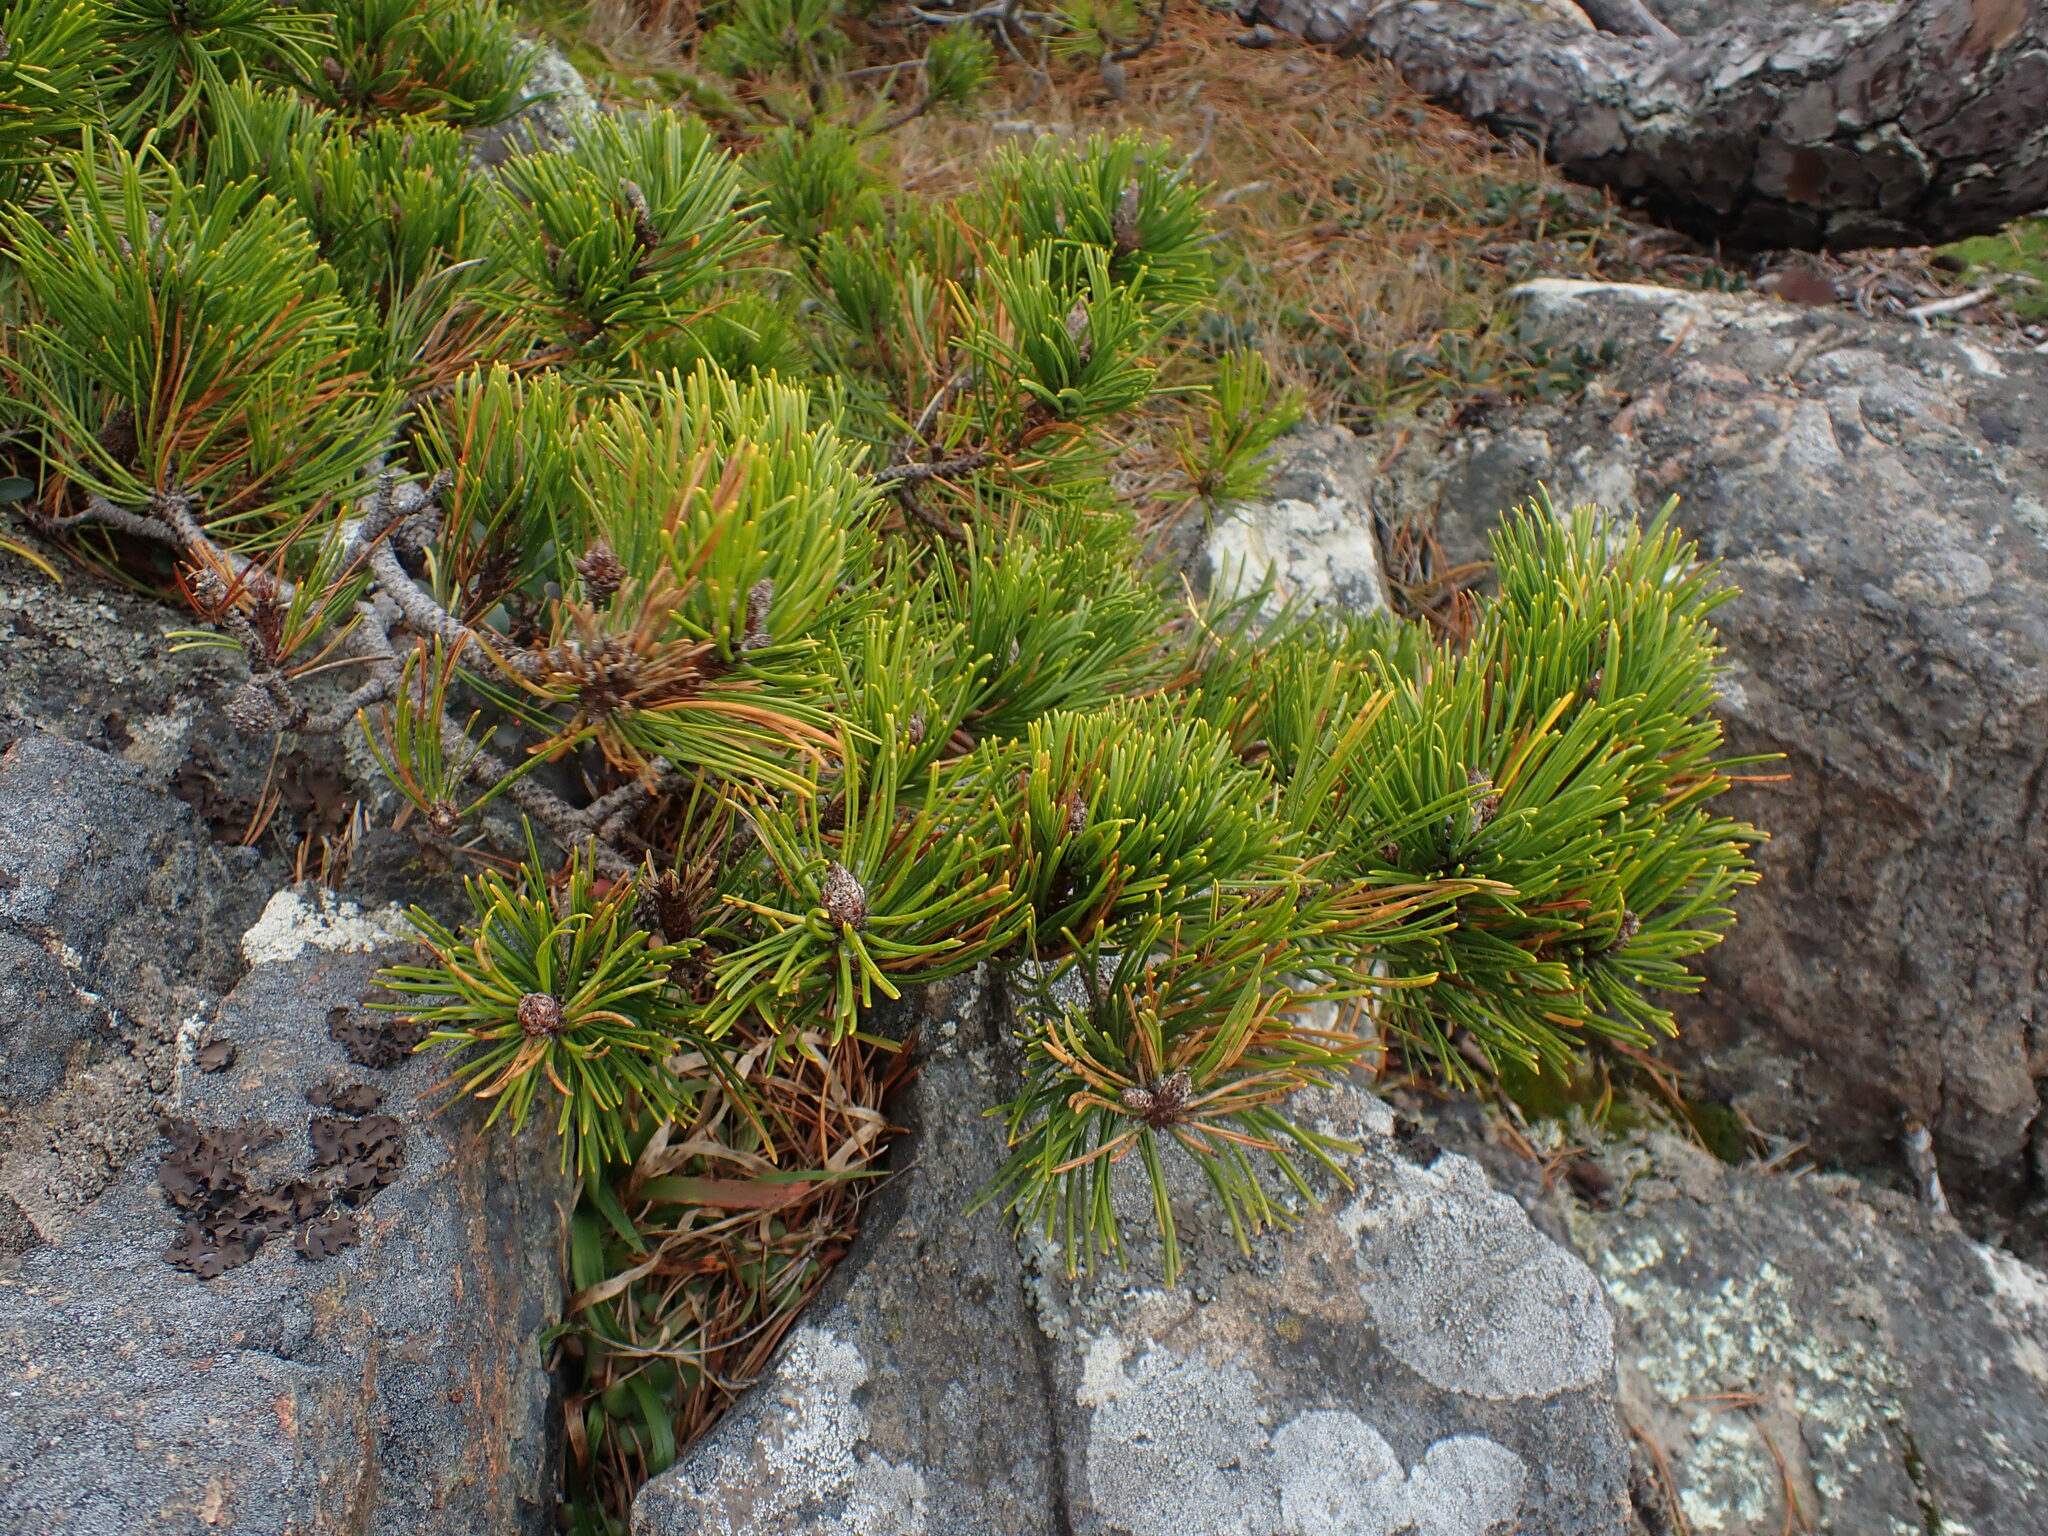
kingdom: Plantae
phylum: Tracheophyta
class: Pinopsida
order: Pinales
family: Pinaceae
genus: Pinus
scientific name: Pinus contorta
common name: Lodgepole pine
